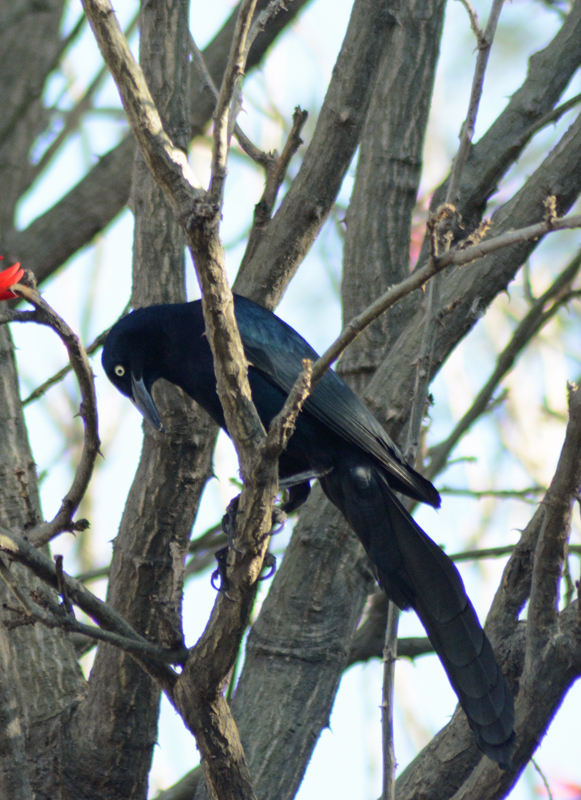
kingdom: Animalia
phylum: Chordata
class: Aves
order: Passeriformes
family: Icteridae
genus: Quiscalus
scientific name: Quiscalus mexicanus
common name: Great-tailed grackle
